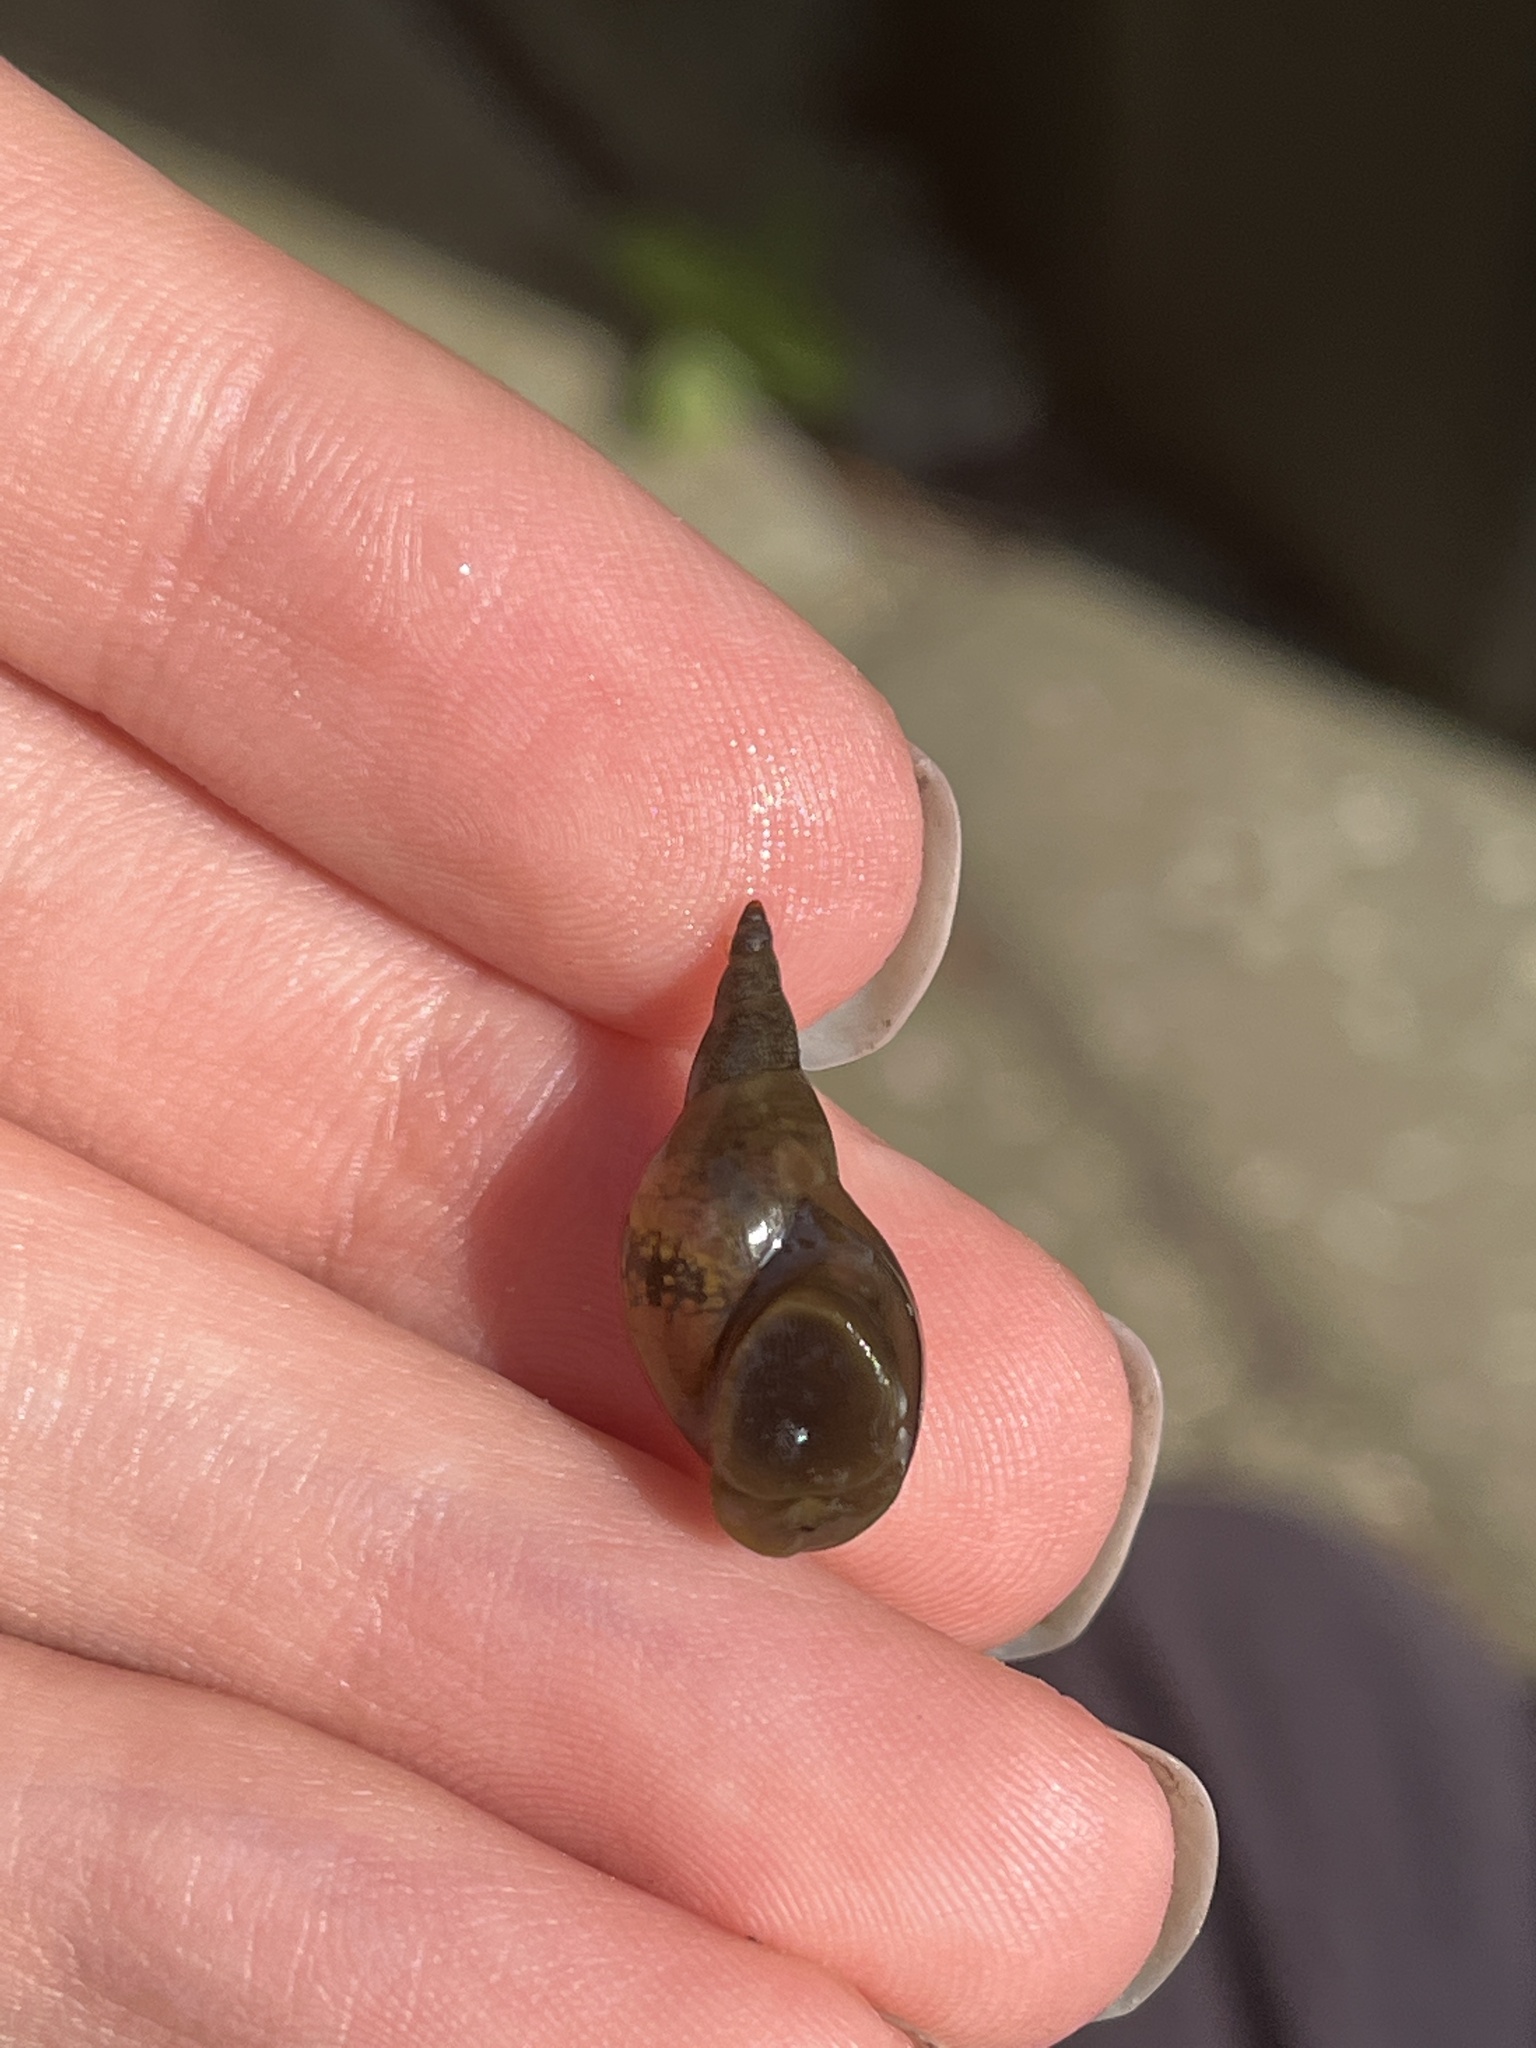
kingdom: Animalia
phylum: Mollusca
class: Gastropoda
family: Lymnaeidae
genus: Lymnaea
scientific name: Lymnaea stagnalis
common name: Great pond snail
